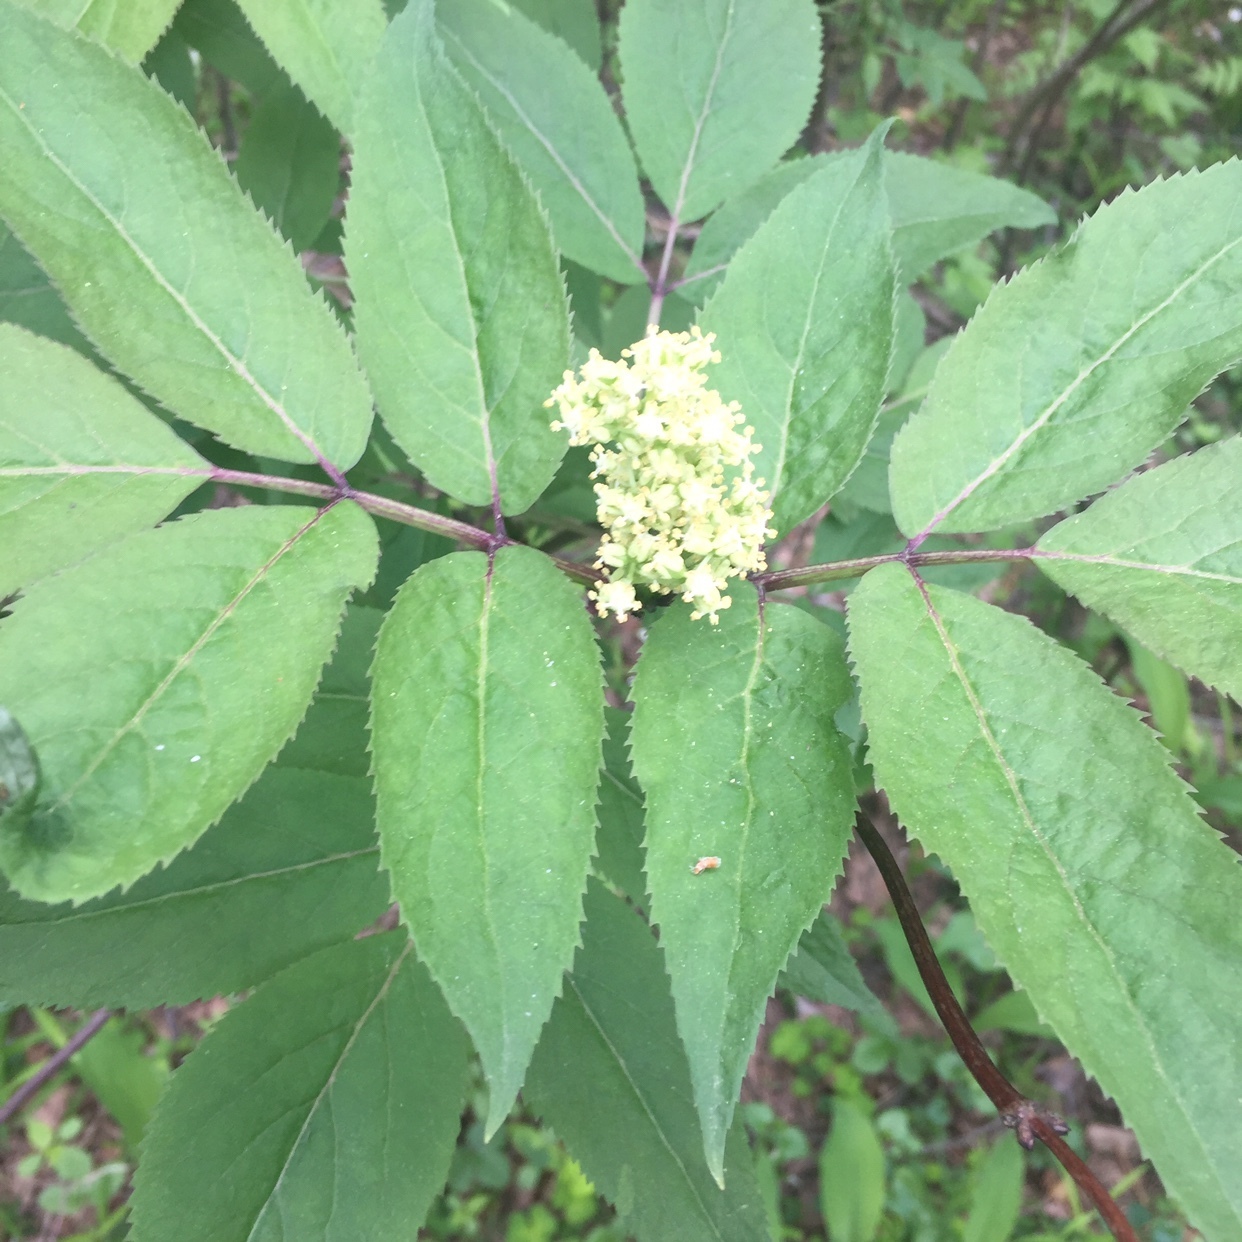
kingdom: Plantae
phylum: Tracheophyta
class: Magnoliopsida
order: Dipsacales
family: Viburnaceae
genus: Sambucus
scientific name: Sambucus racemosa
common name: Red-berried elder
